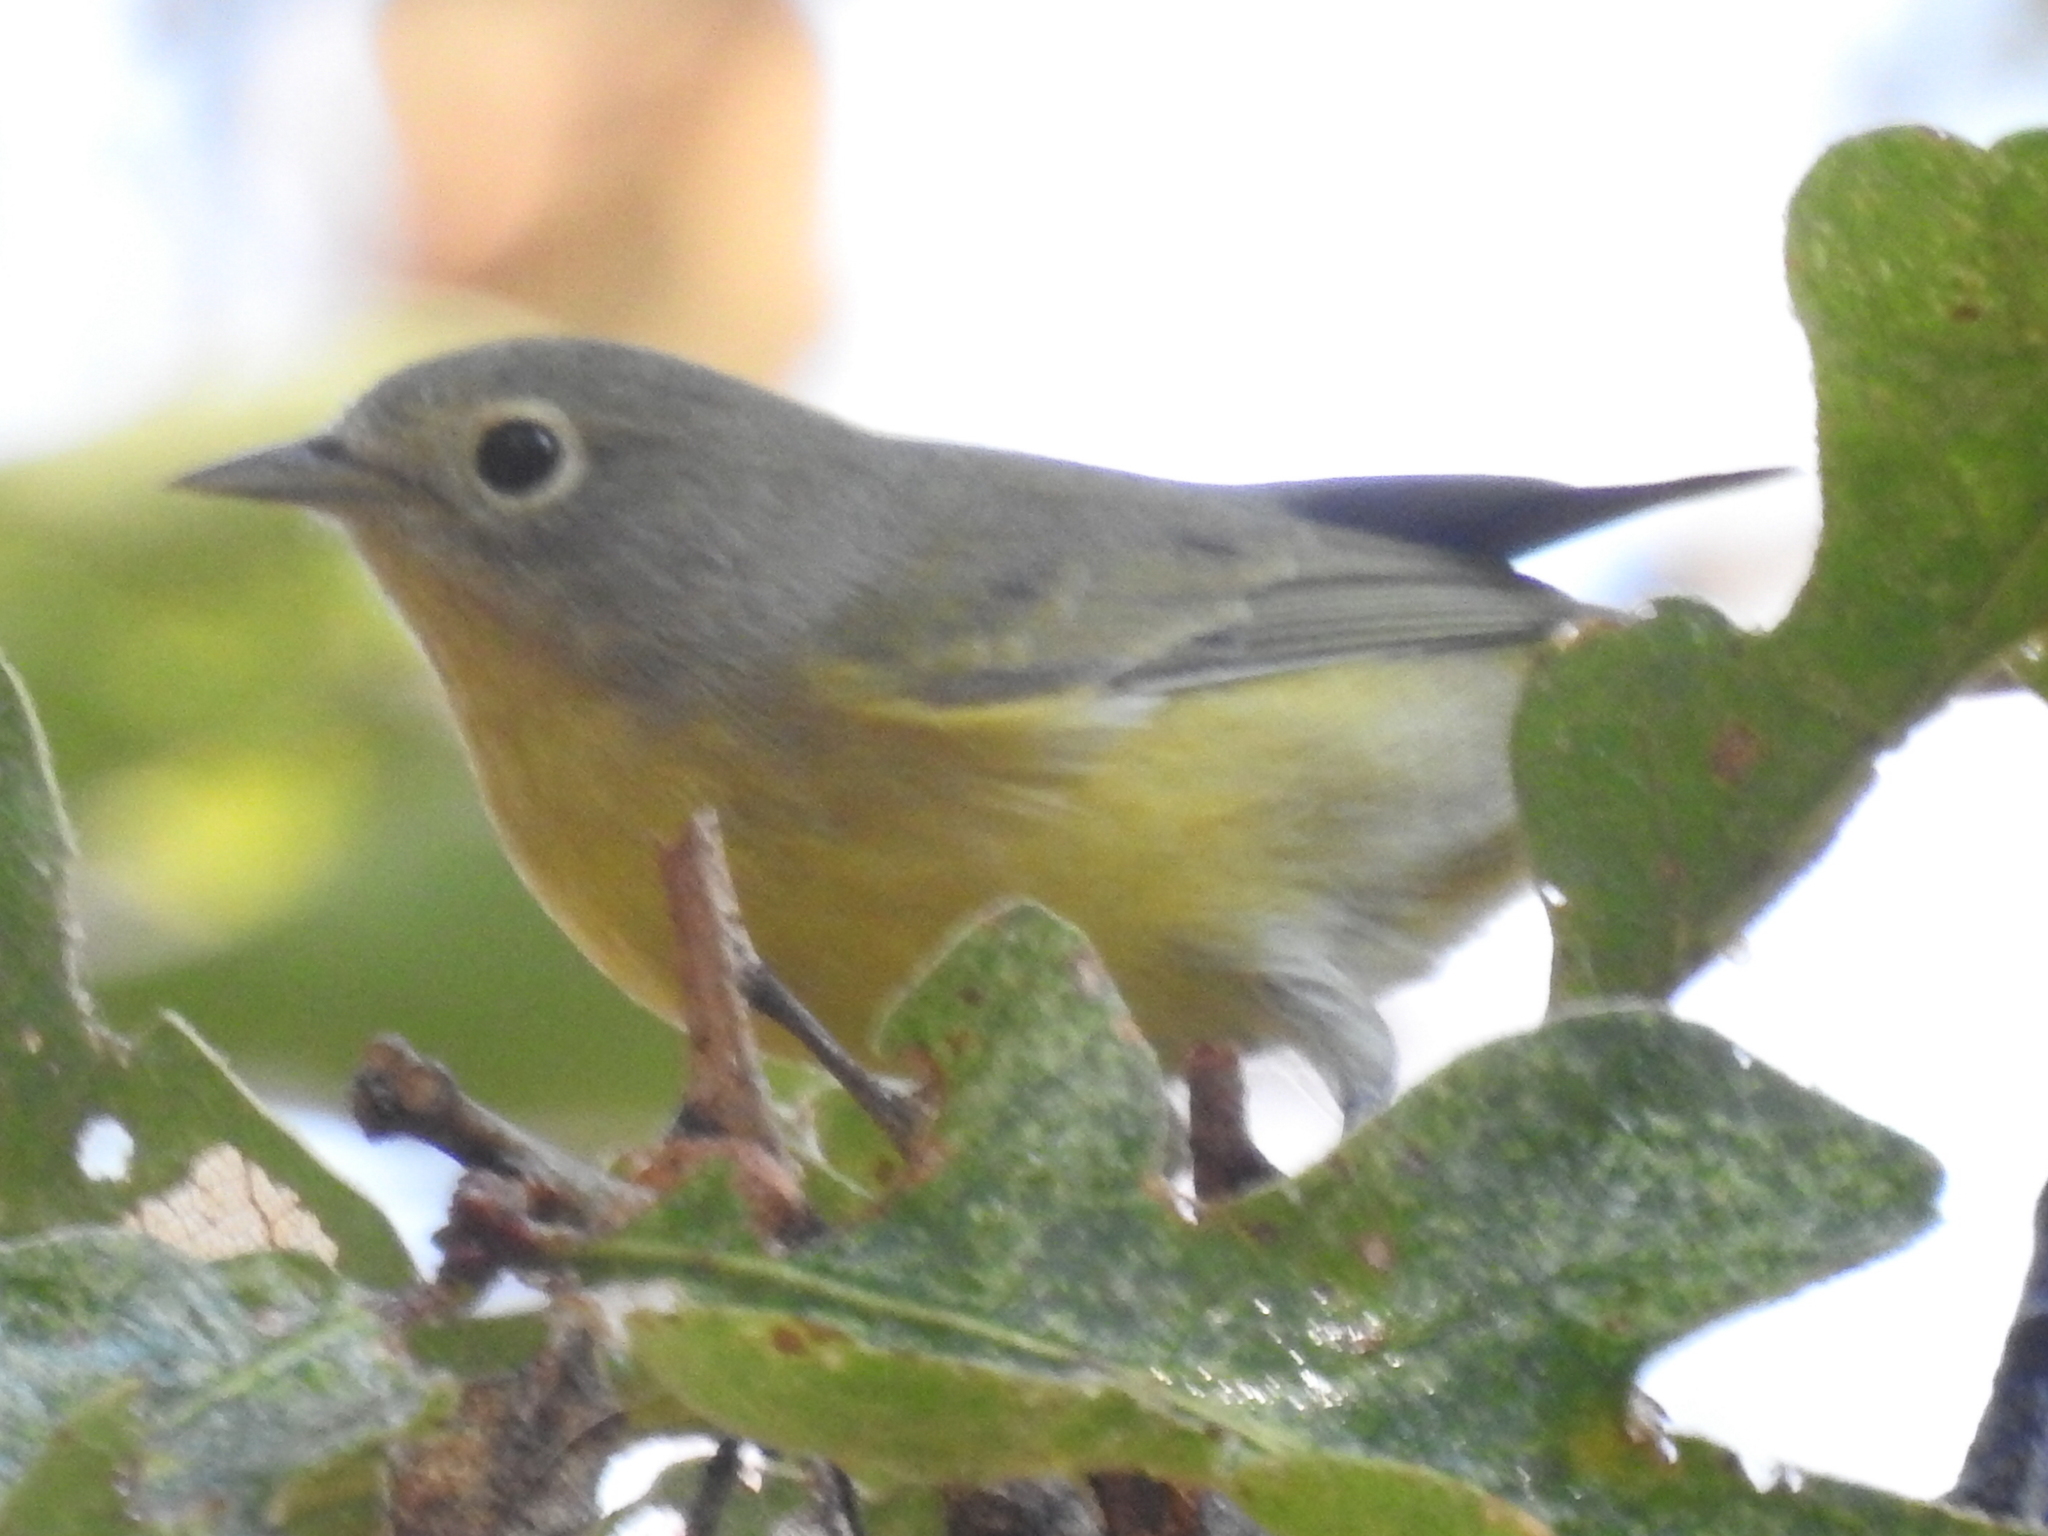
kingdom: Animalia
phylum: Chordata
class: Aves
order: Passeriformes
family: Parulidae
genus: Leiothlypis
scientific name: Leiothlypis ruficapilla
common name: Nashville warbler
